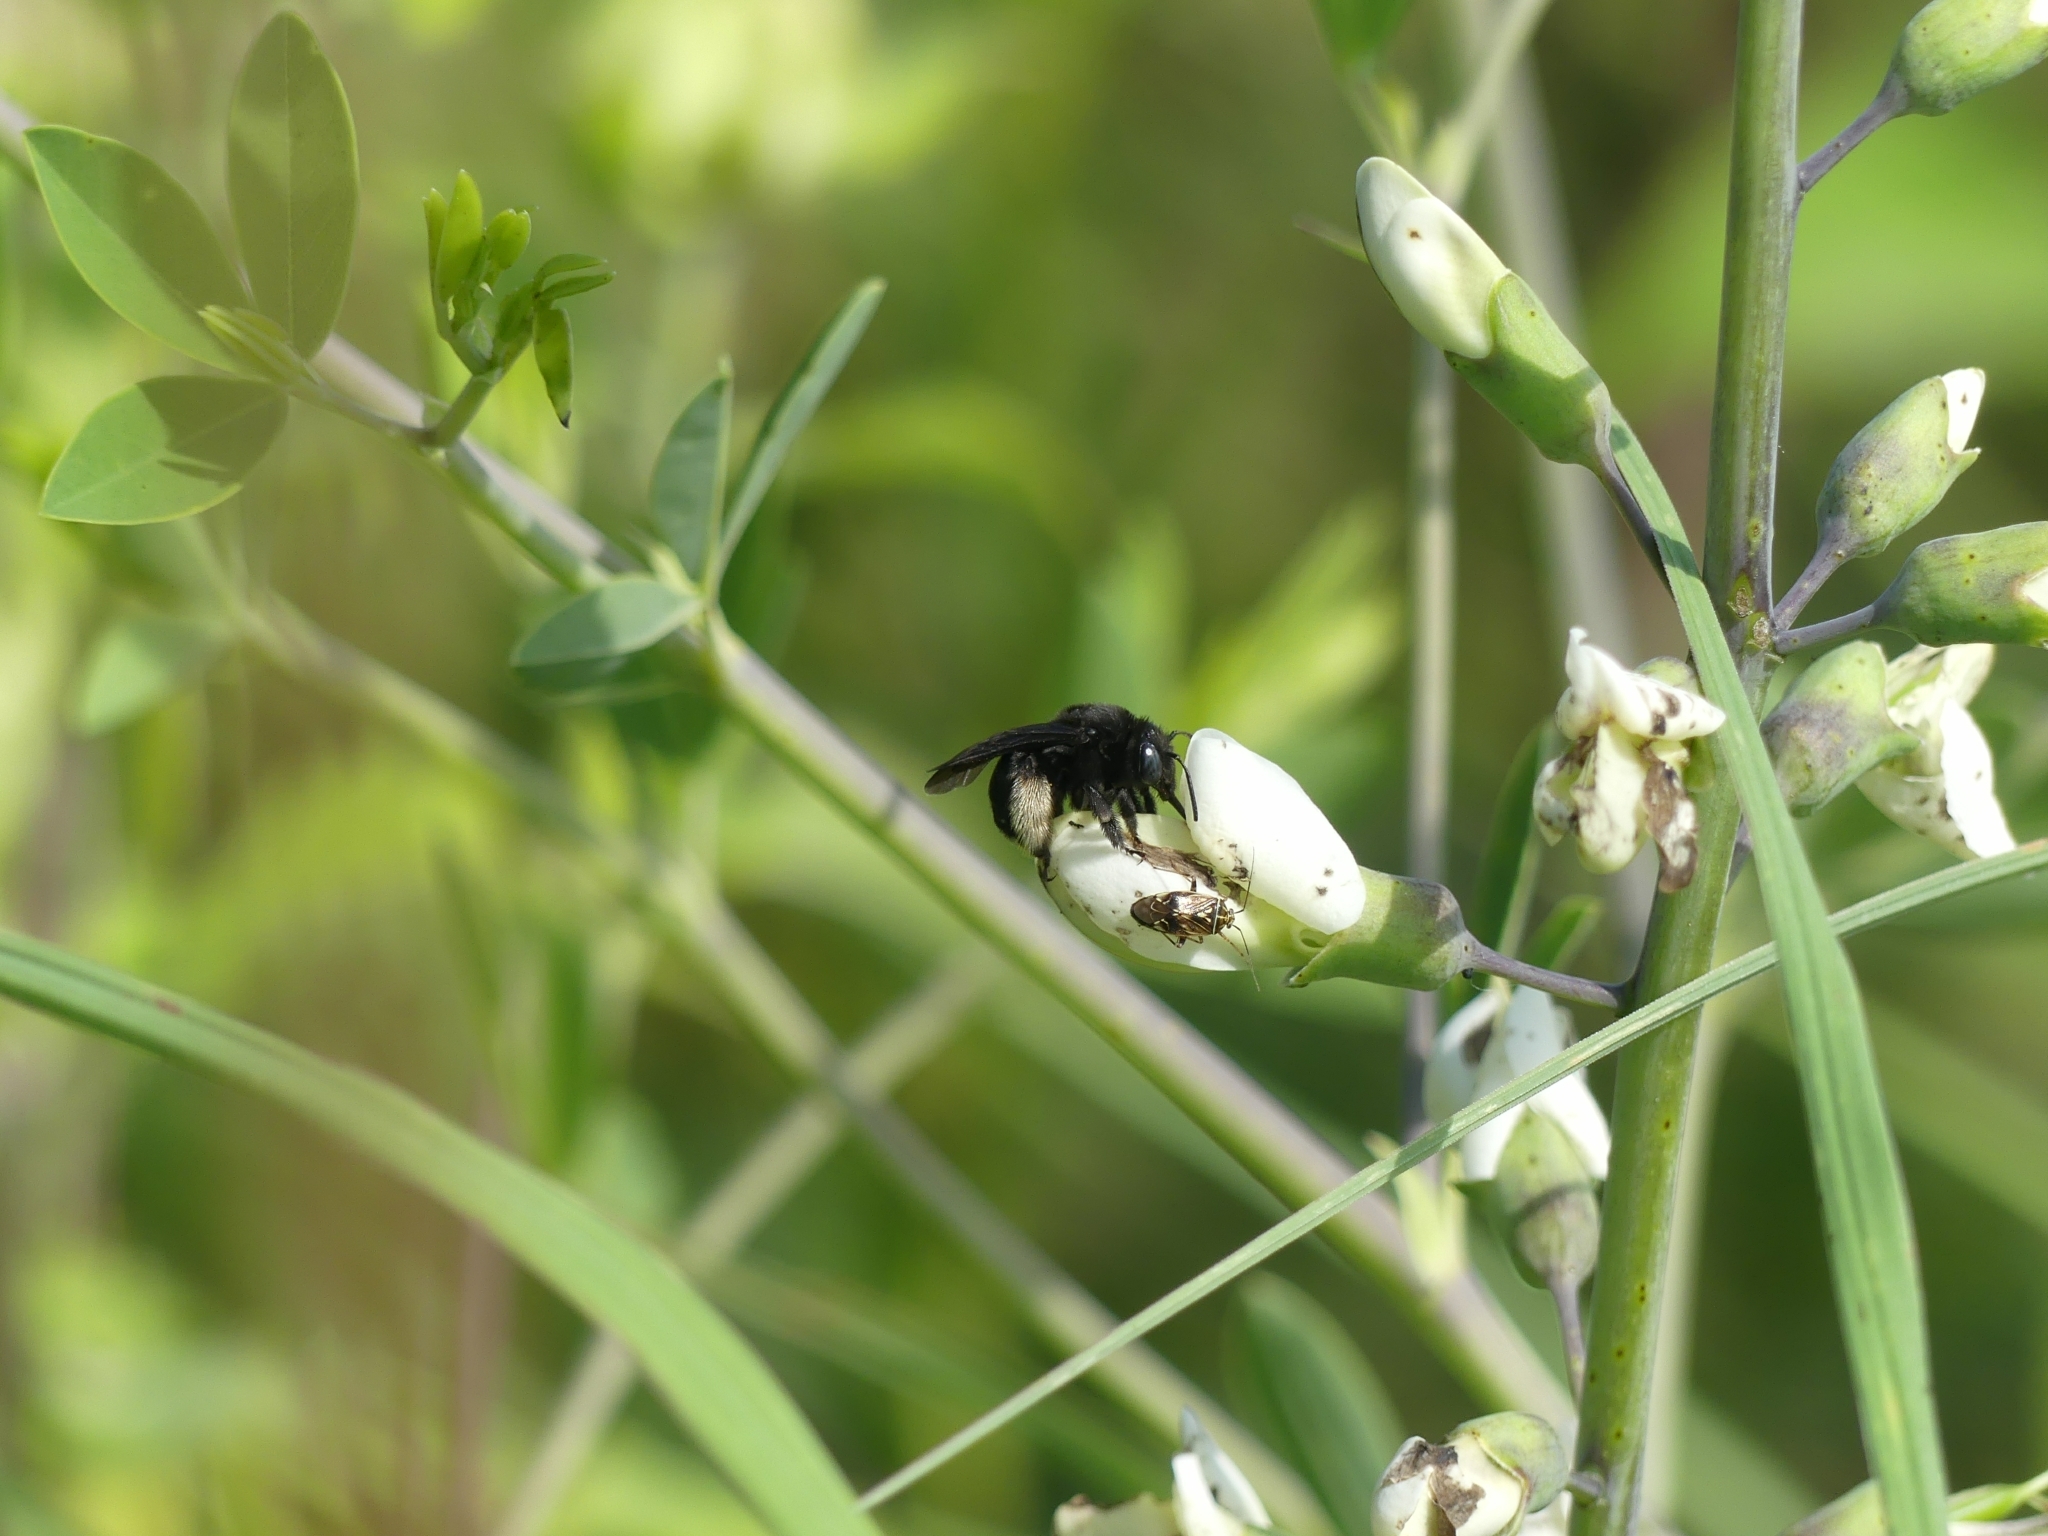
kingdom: Animalia
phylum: Arthropoda
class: Insecta
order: Hymenoptera
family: Apidae
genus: Melissodes
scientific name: Melissodes bimaculatus
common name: Two-spotted long-horned bee
